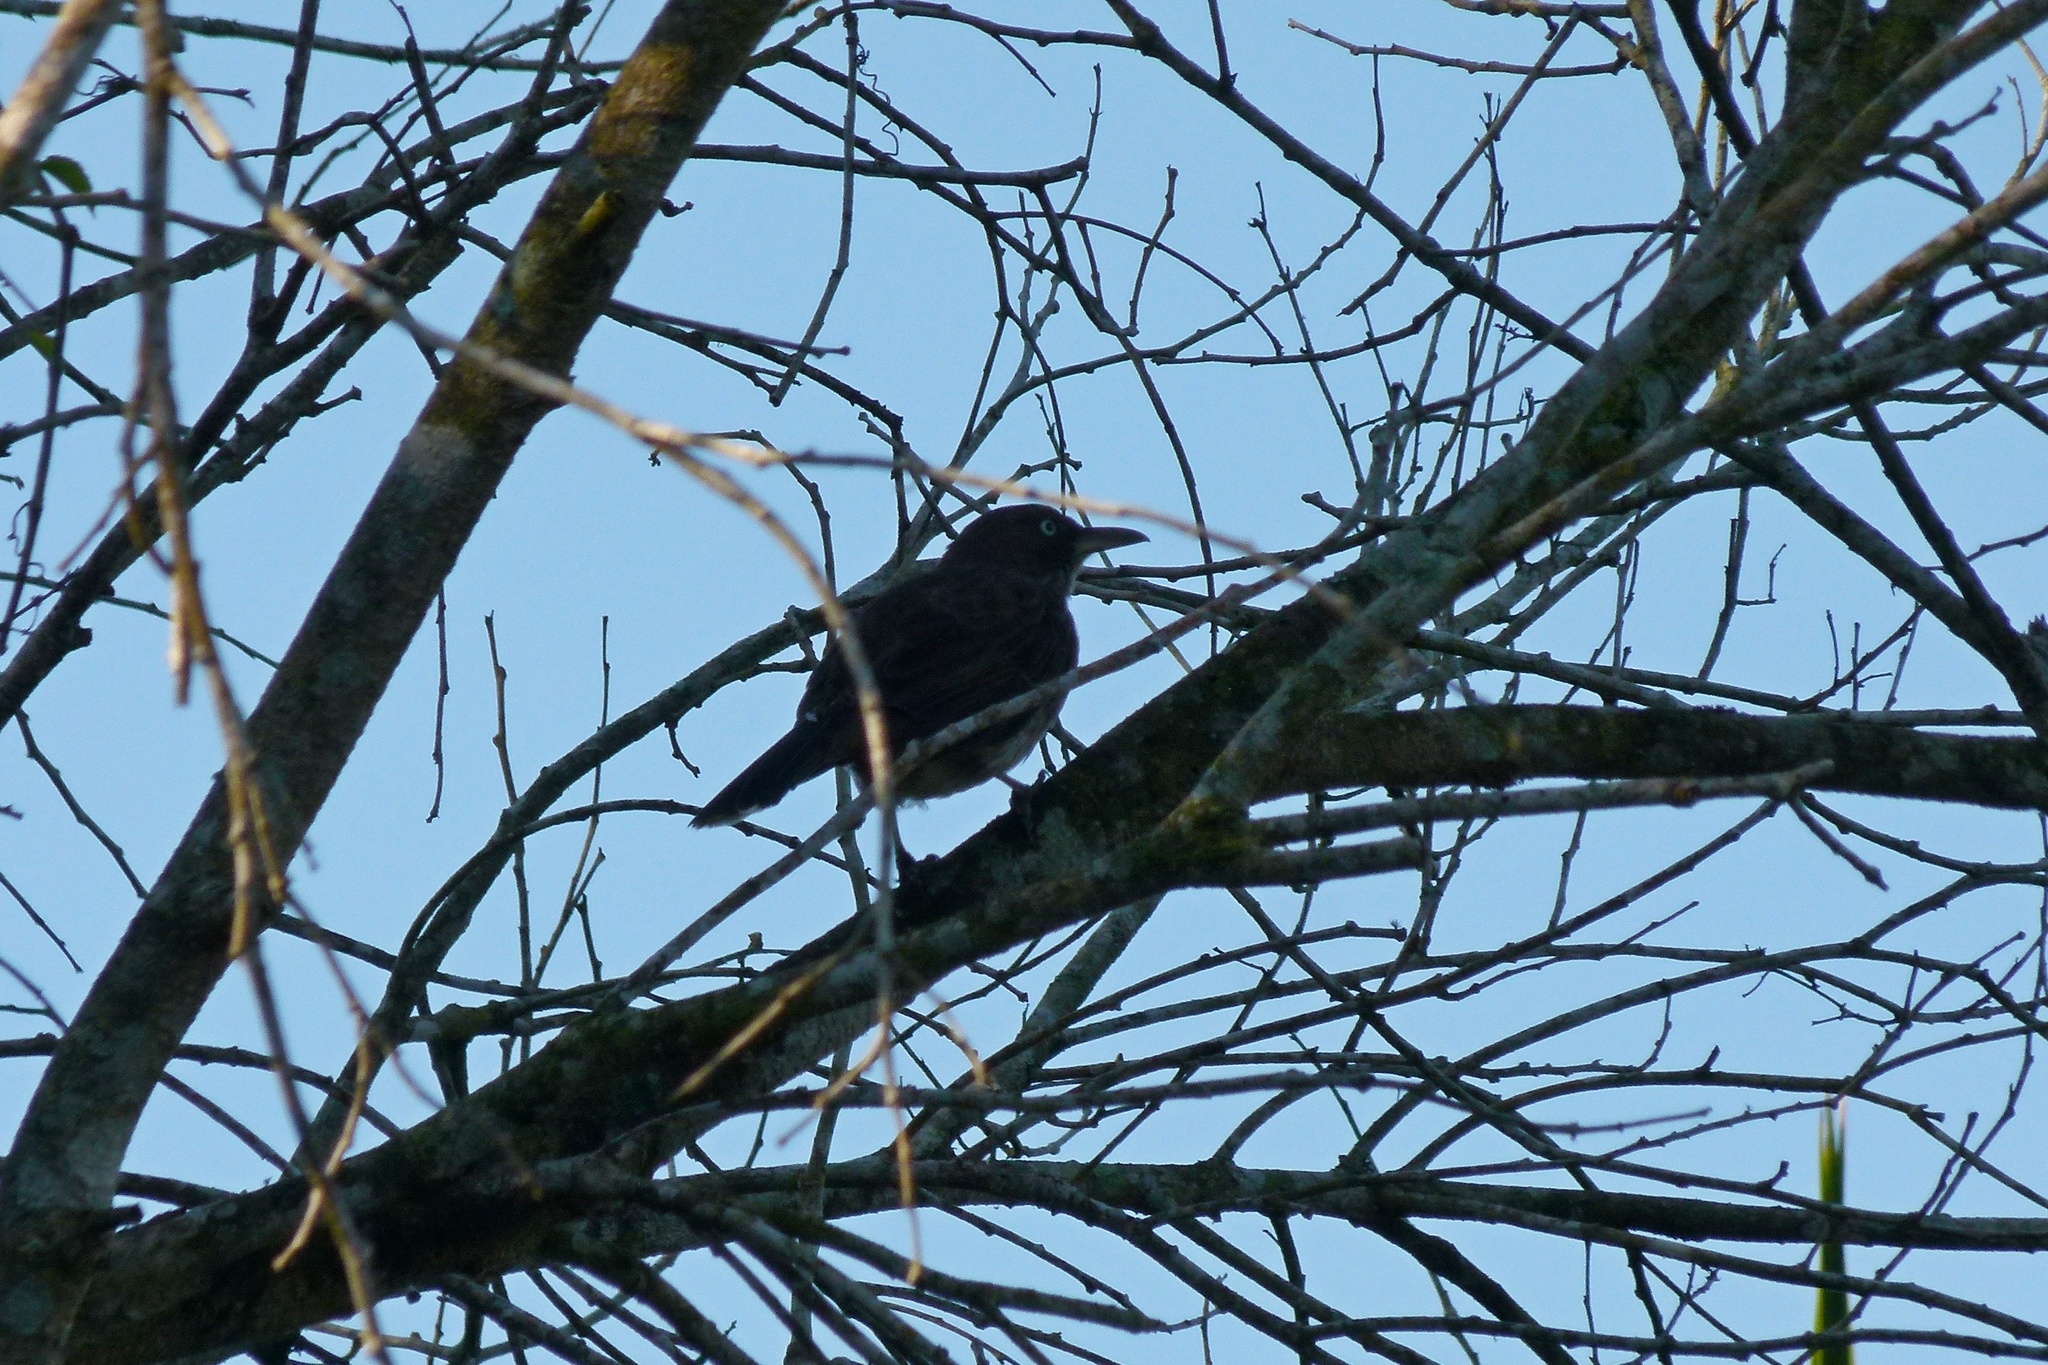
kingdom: Animalia
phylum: Chordata
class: Aves
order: Passeriformes
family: Mimidae
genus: Margarops
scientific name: Margarops fuscatus
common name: Pearly-eyed thrasher
